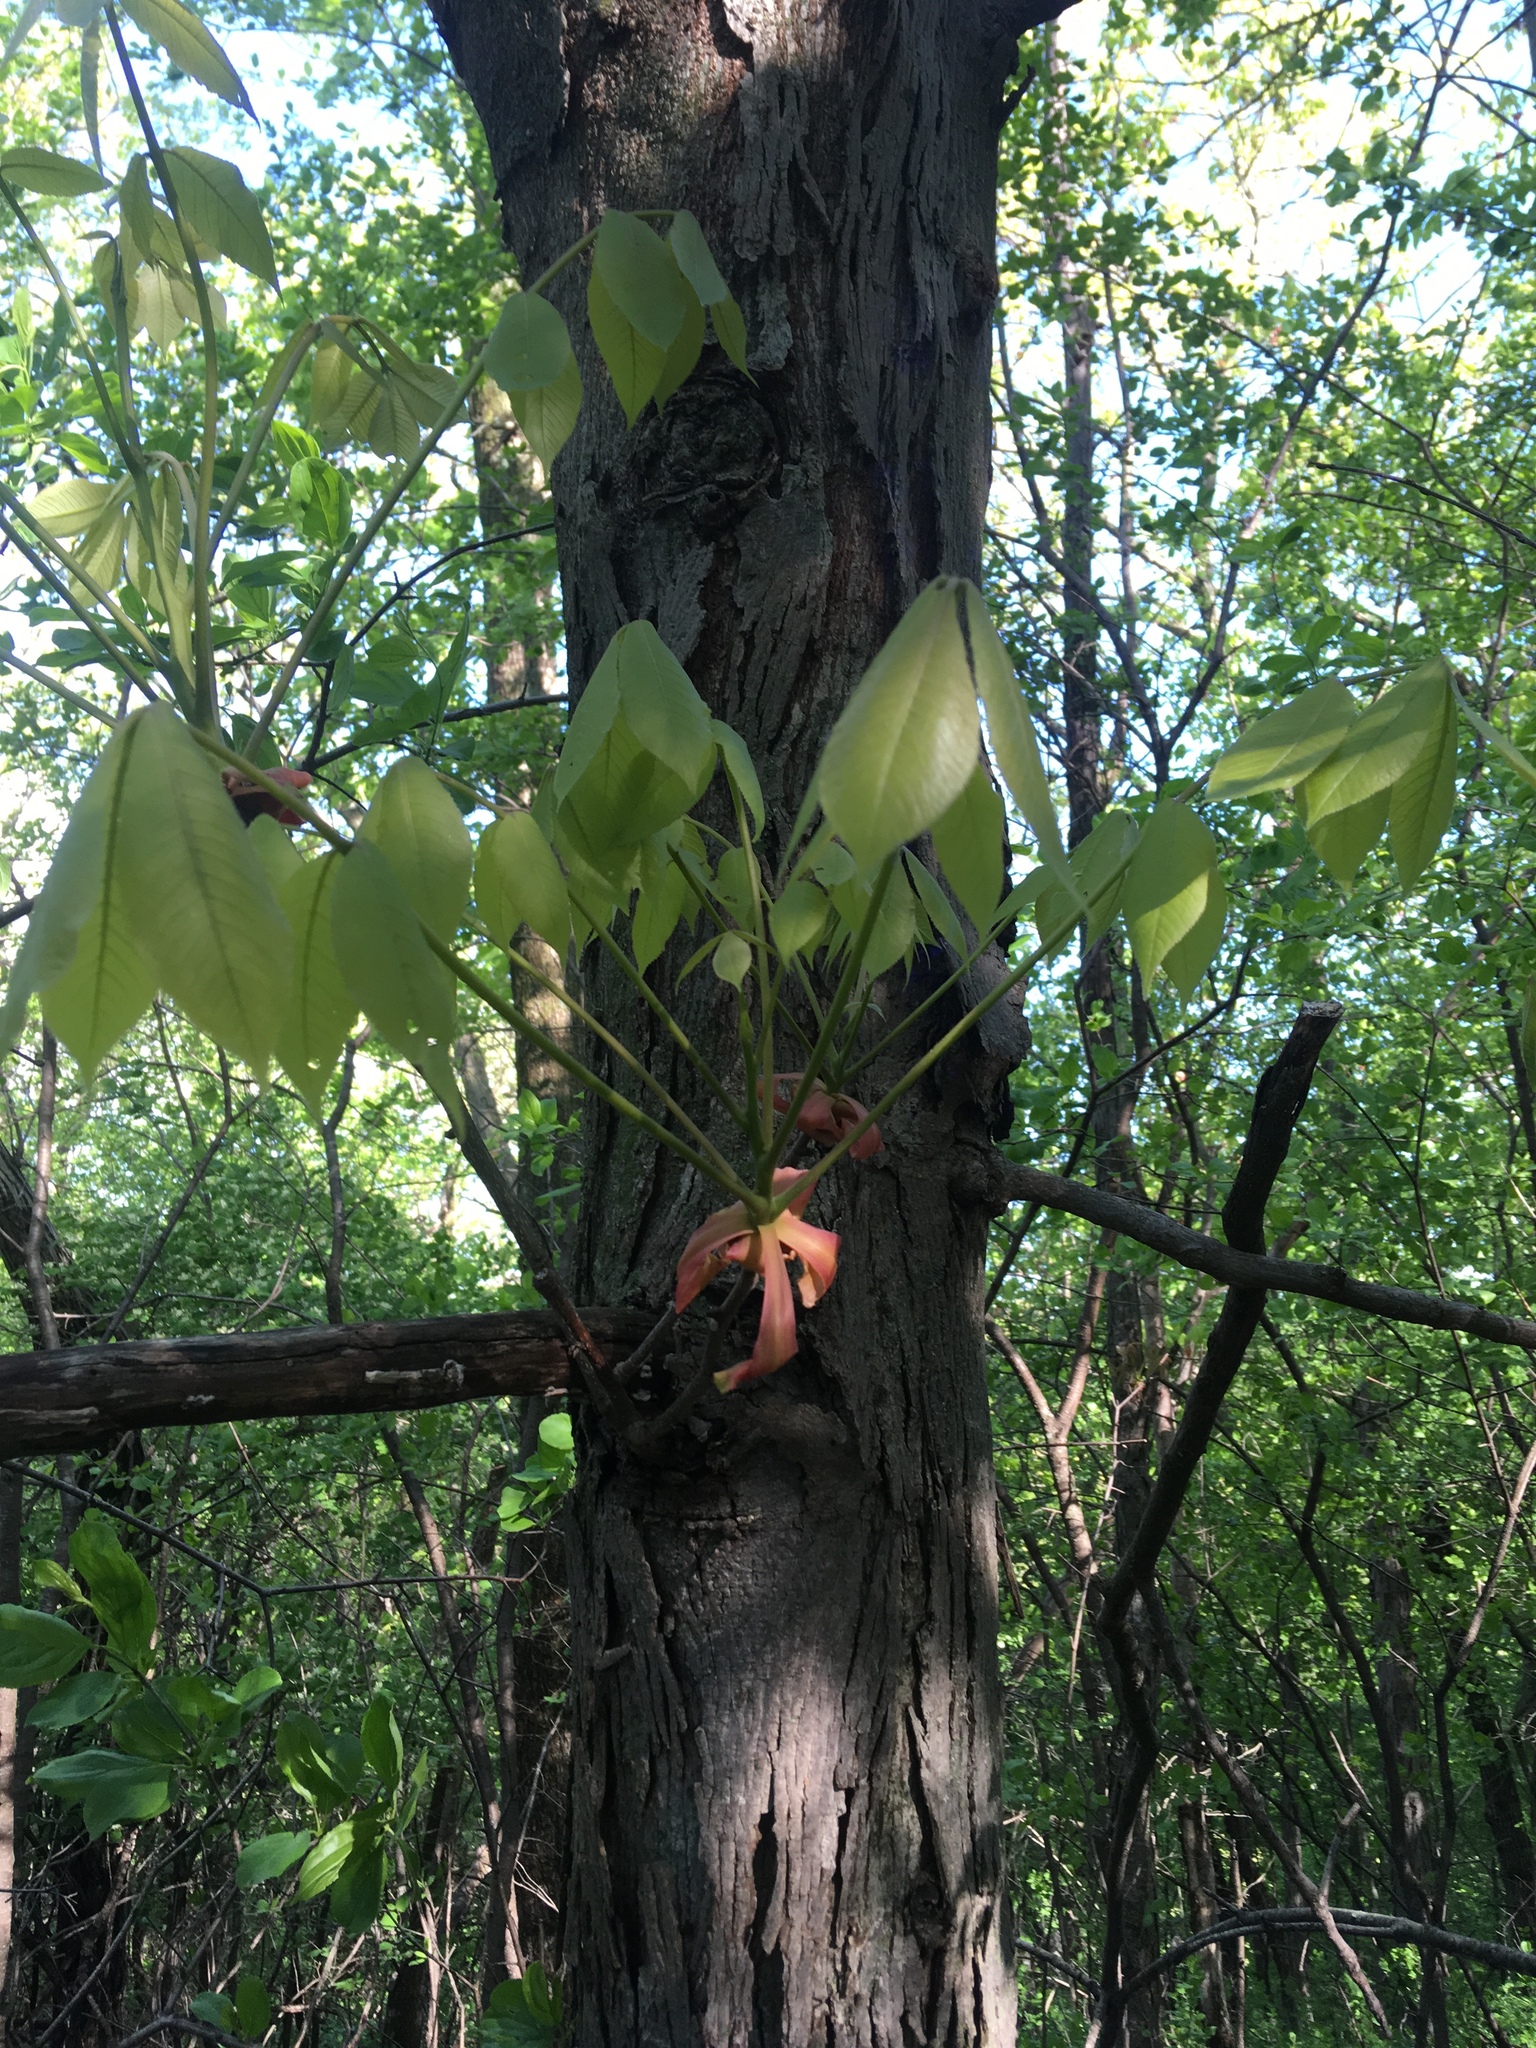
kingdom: Plantae
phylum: Tracheophyta
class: Magnoliopsida
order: Fagales
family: Juglandaceae
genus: Carya
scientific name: Carya ovata
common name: Shagbark hickory
